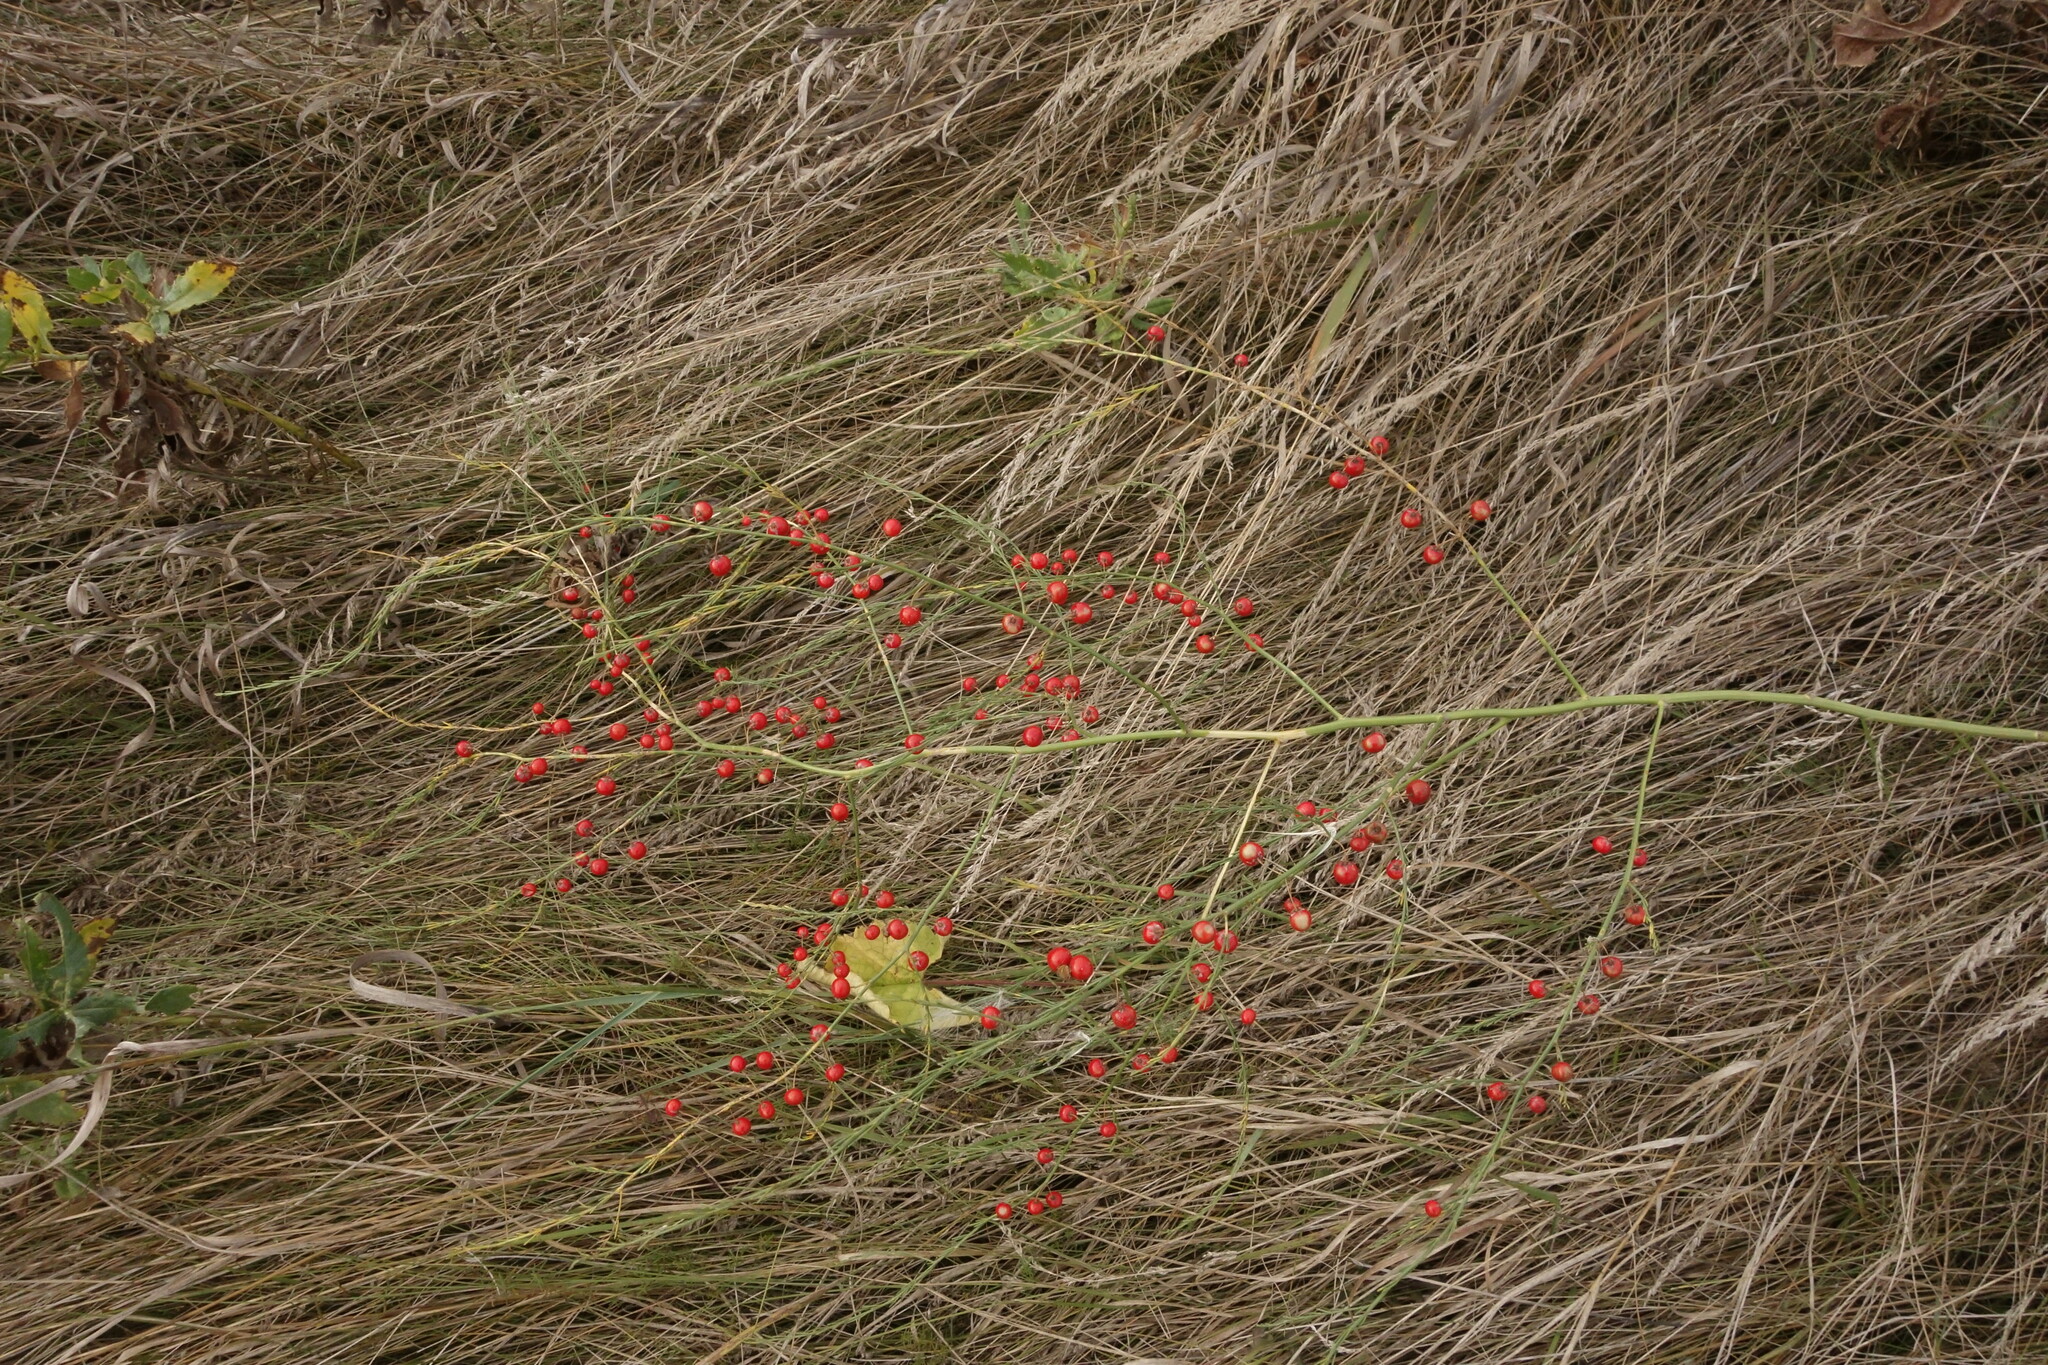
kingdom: Plantae
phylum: Tracheophyta
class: Liliopsida
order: Asparagales
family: Asparagaceae
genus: Asparagus
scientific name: Asparagus officinalis
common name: Garden asparagus
